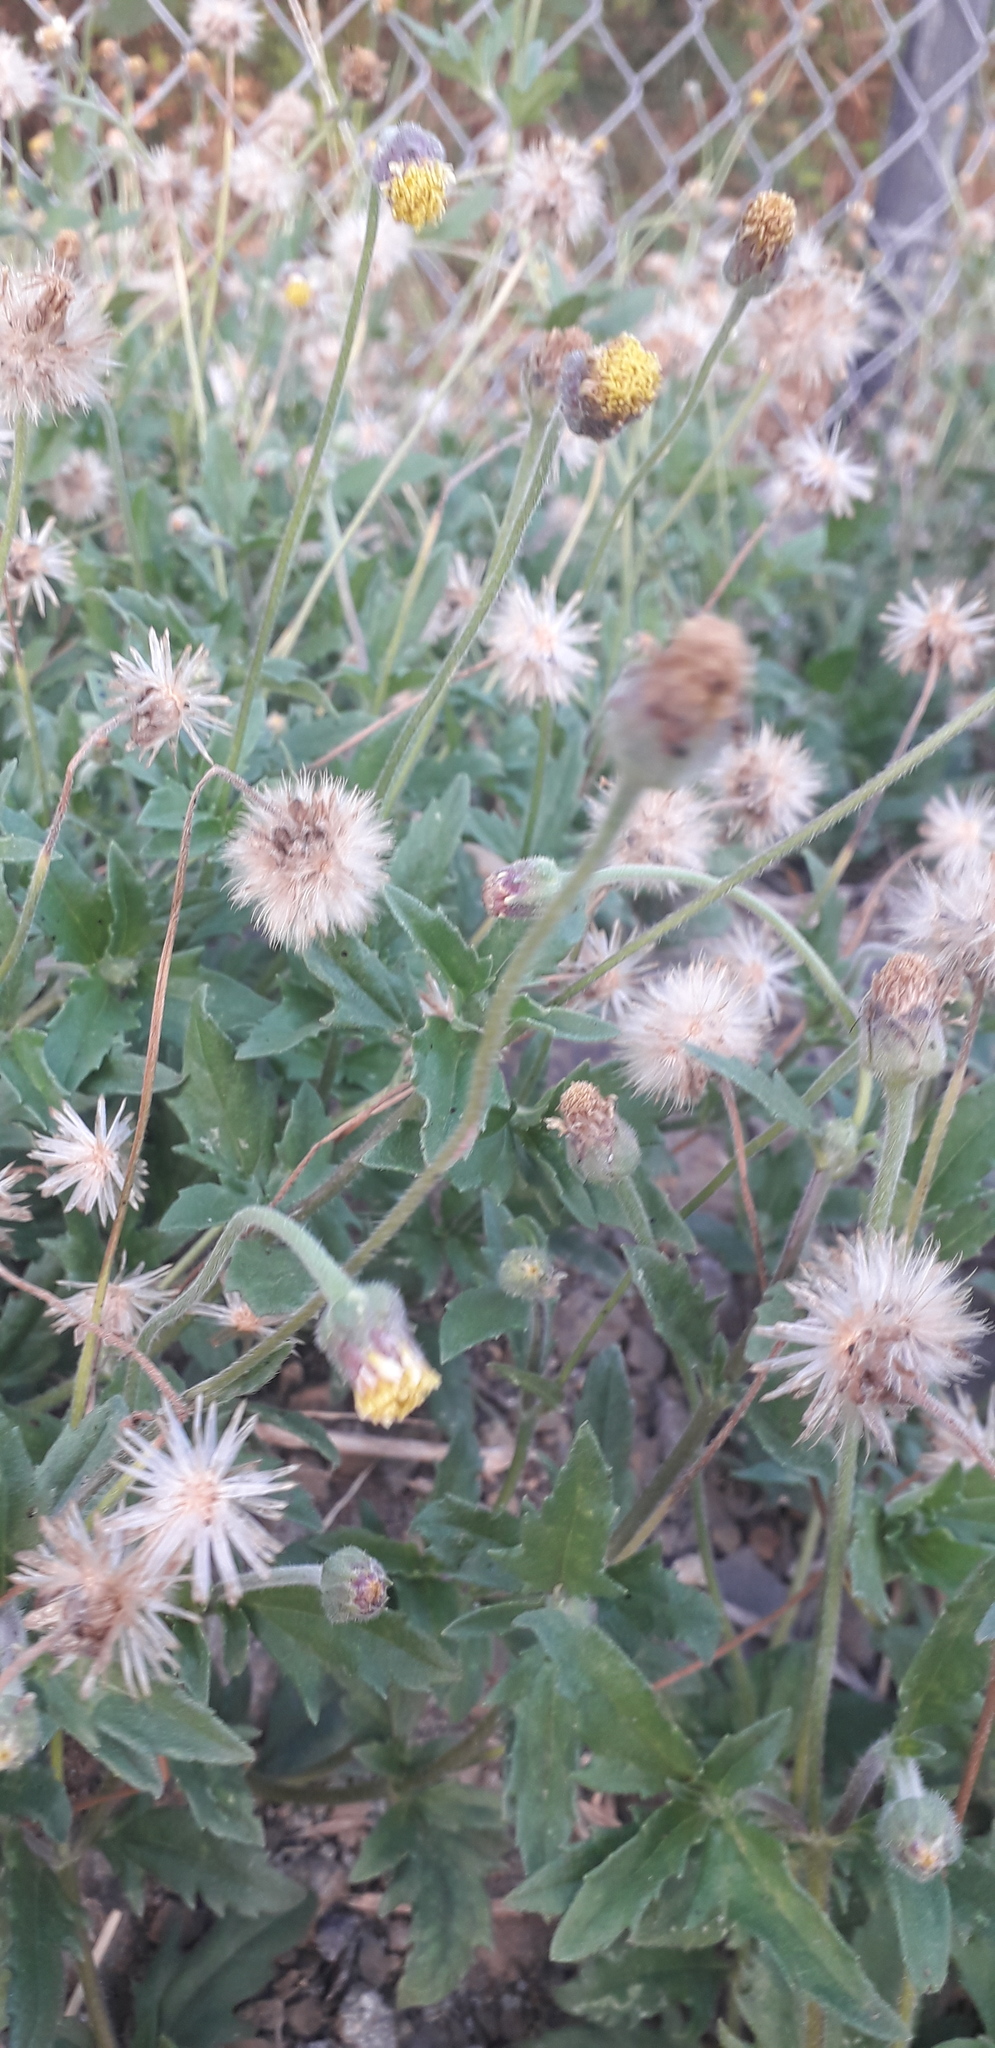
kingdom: Plantae
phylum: Tracheophyta
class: Magnoliopsida
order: Asterales
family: Asteraceae
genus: Tridax
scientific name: Tridax procumbens
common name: Coatbuttons
